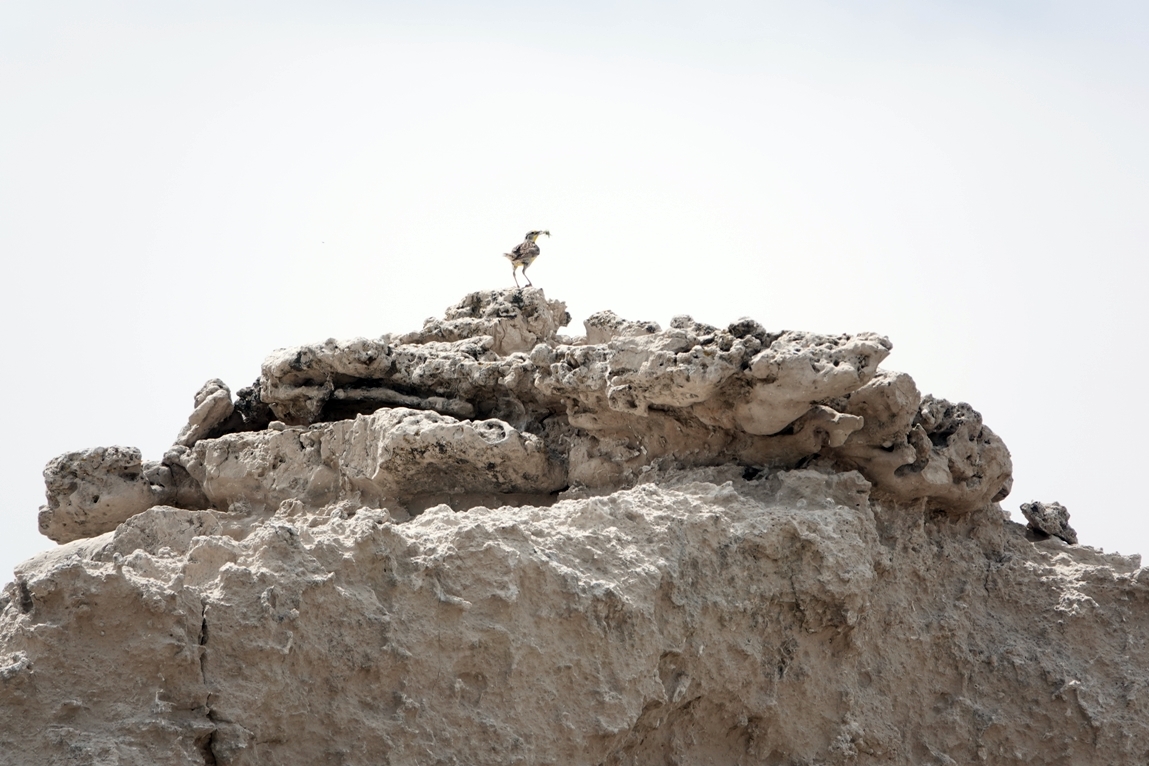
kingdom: Animalia
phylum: Chordata
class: Aves
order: Passeriformes
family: Icteridae
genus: Sturnella
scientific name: Sturnella neglecta
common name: Western meadowlark
